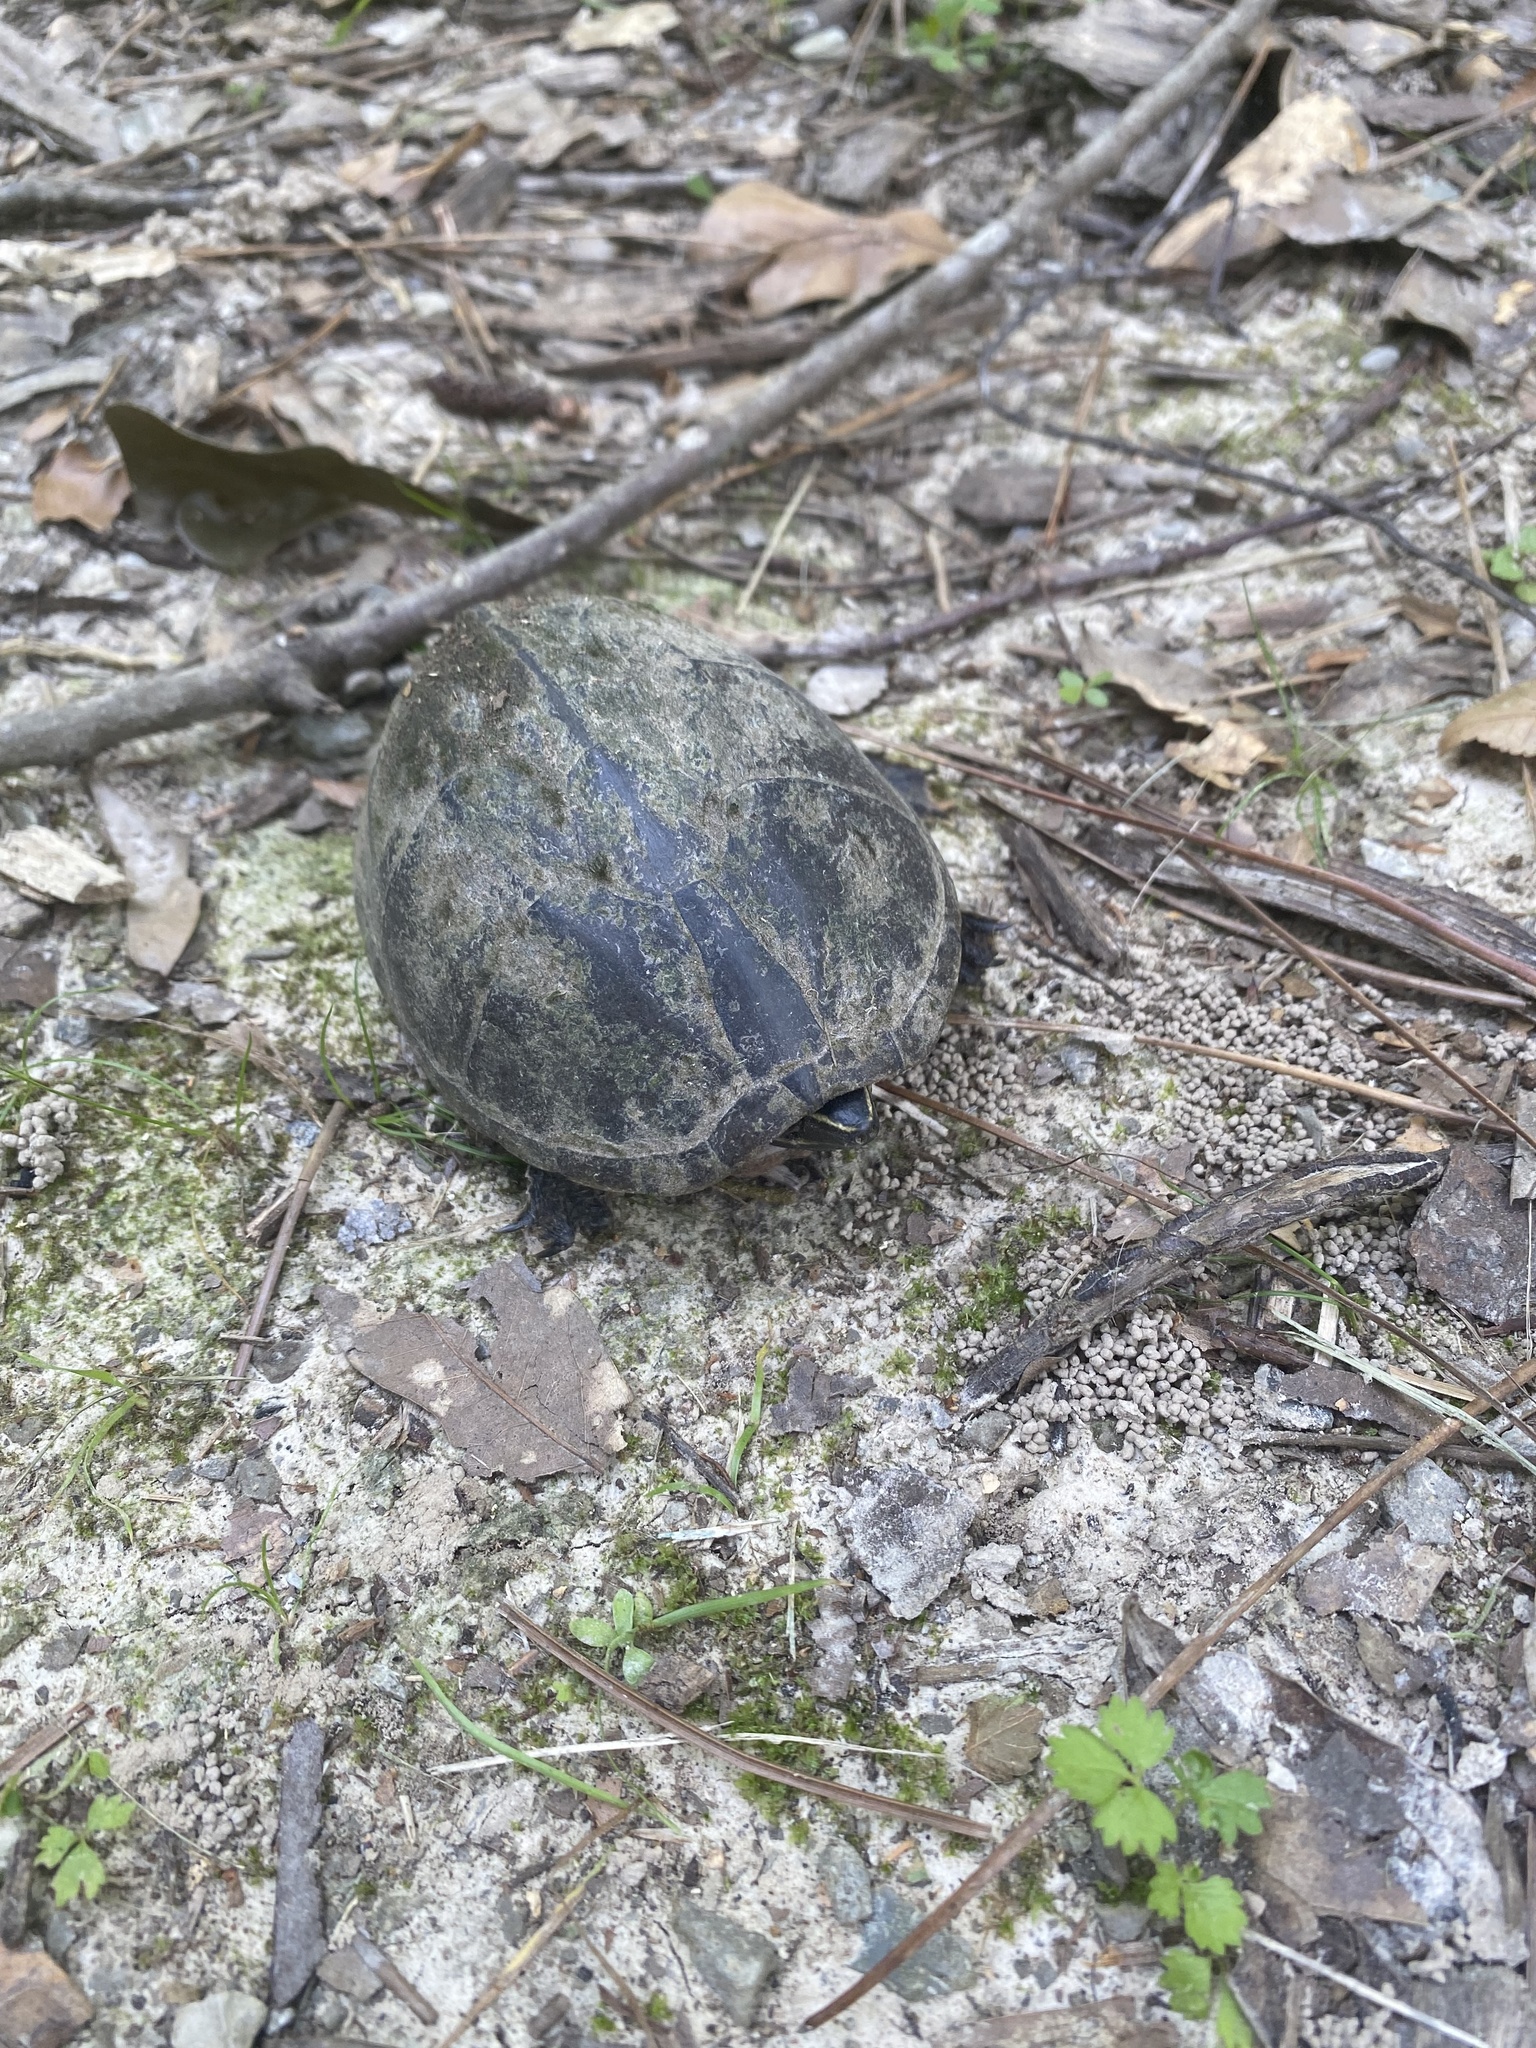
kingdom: Animalia
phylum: Chordata
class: Testudines
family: Kinosternidae
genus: Sternotherus
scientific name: Sternotherus odoratus
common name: Common musk turtle
